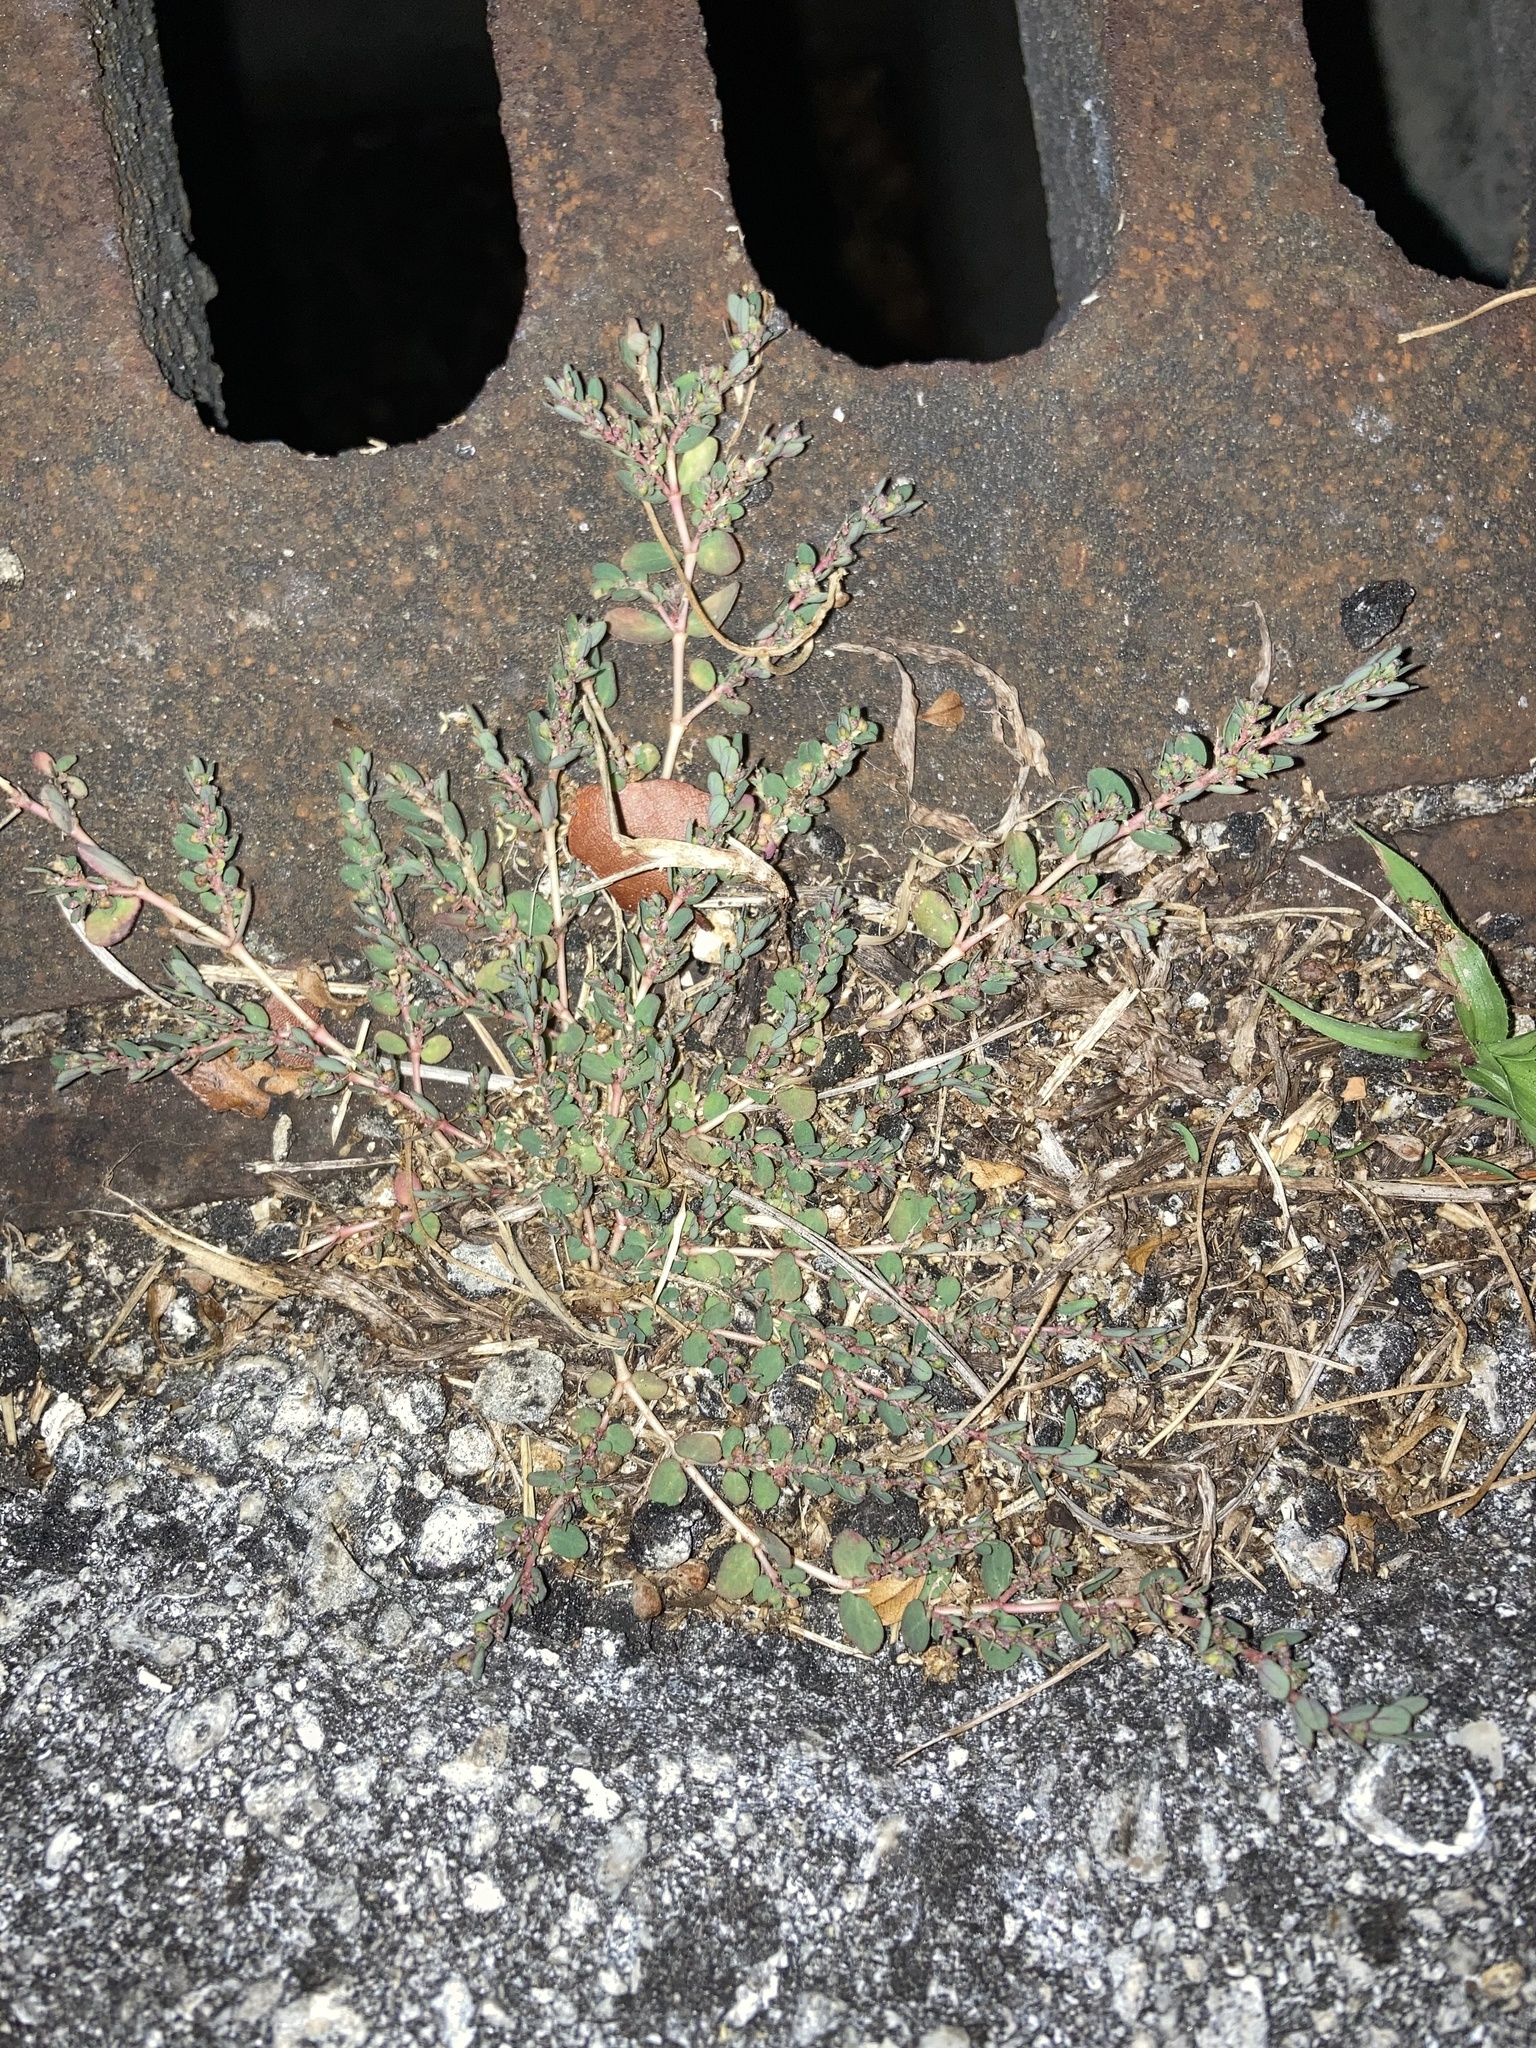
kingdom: Plantae
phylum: Tracheophyta
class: Magnoliopsida
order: Malpighiales
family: Euphorbiaceae
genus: Euphorbia
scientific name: Euphorbia prostrata
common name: Prostrate sandmat
